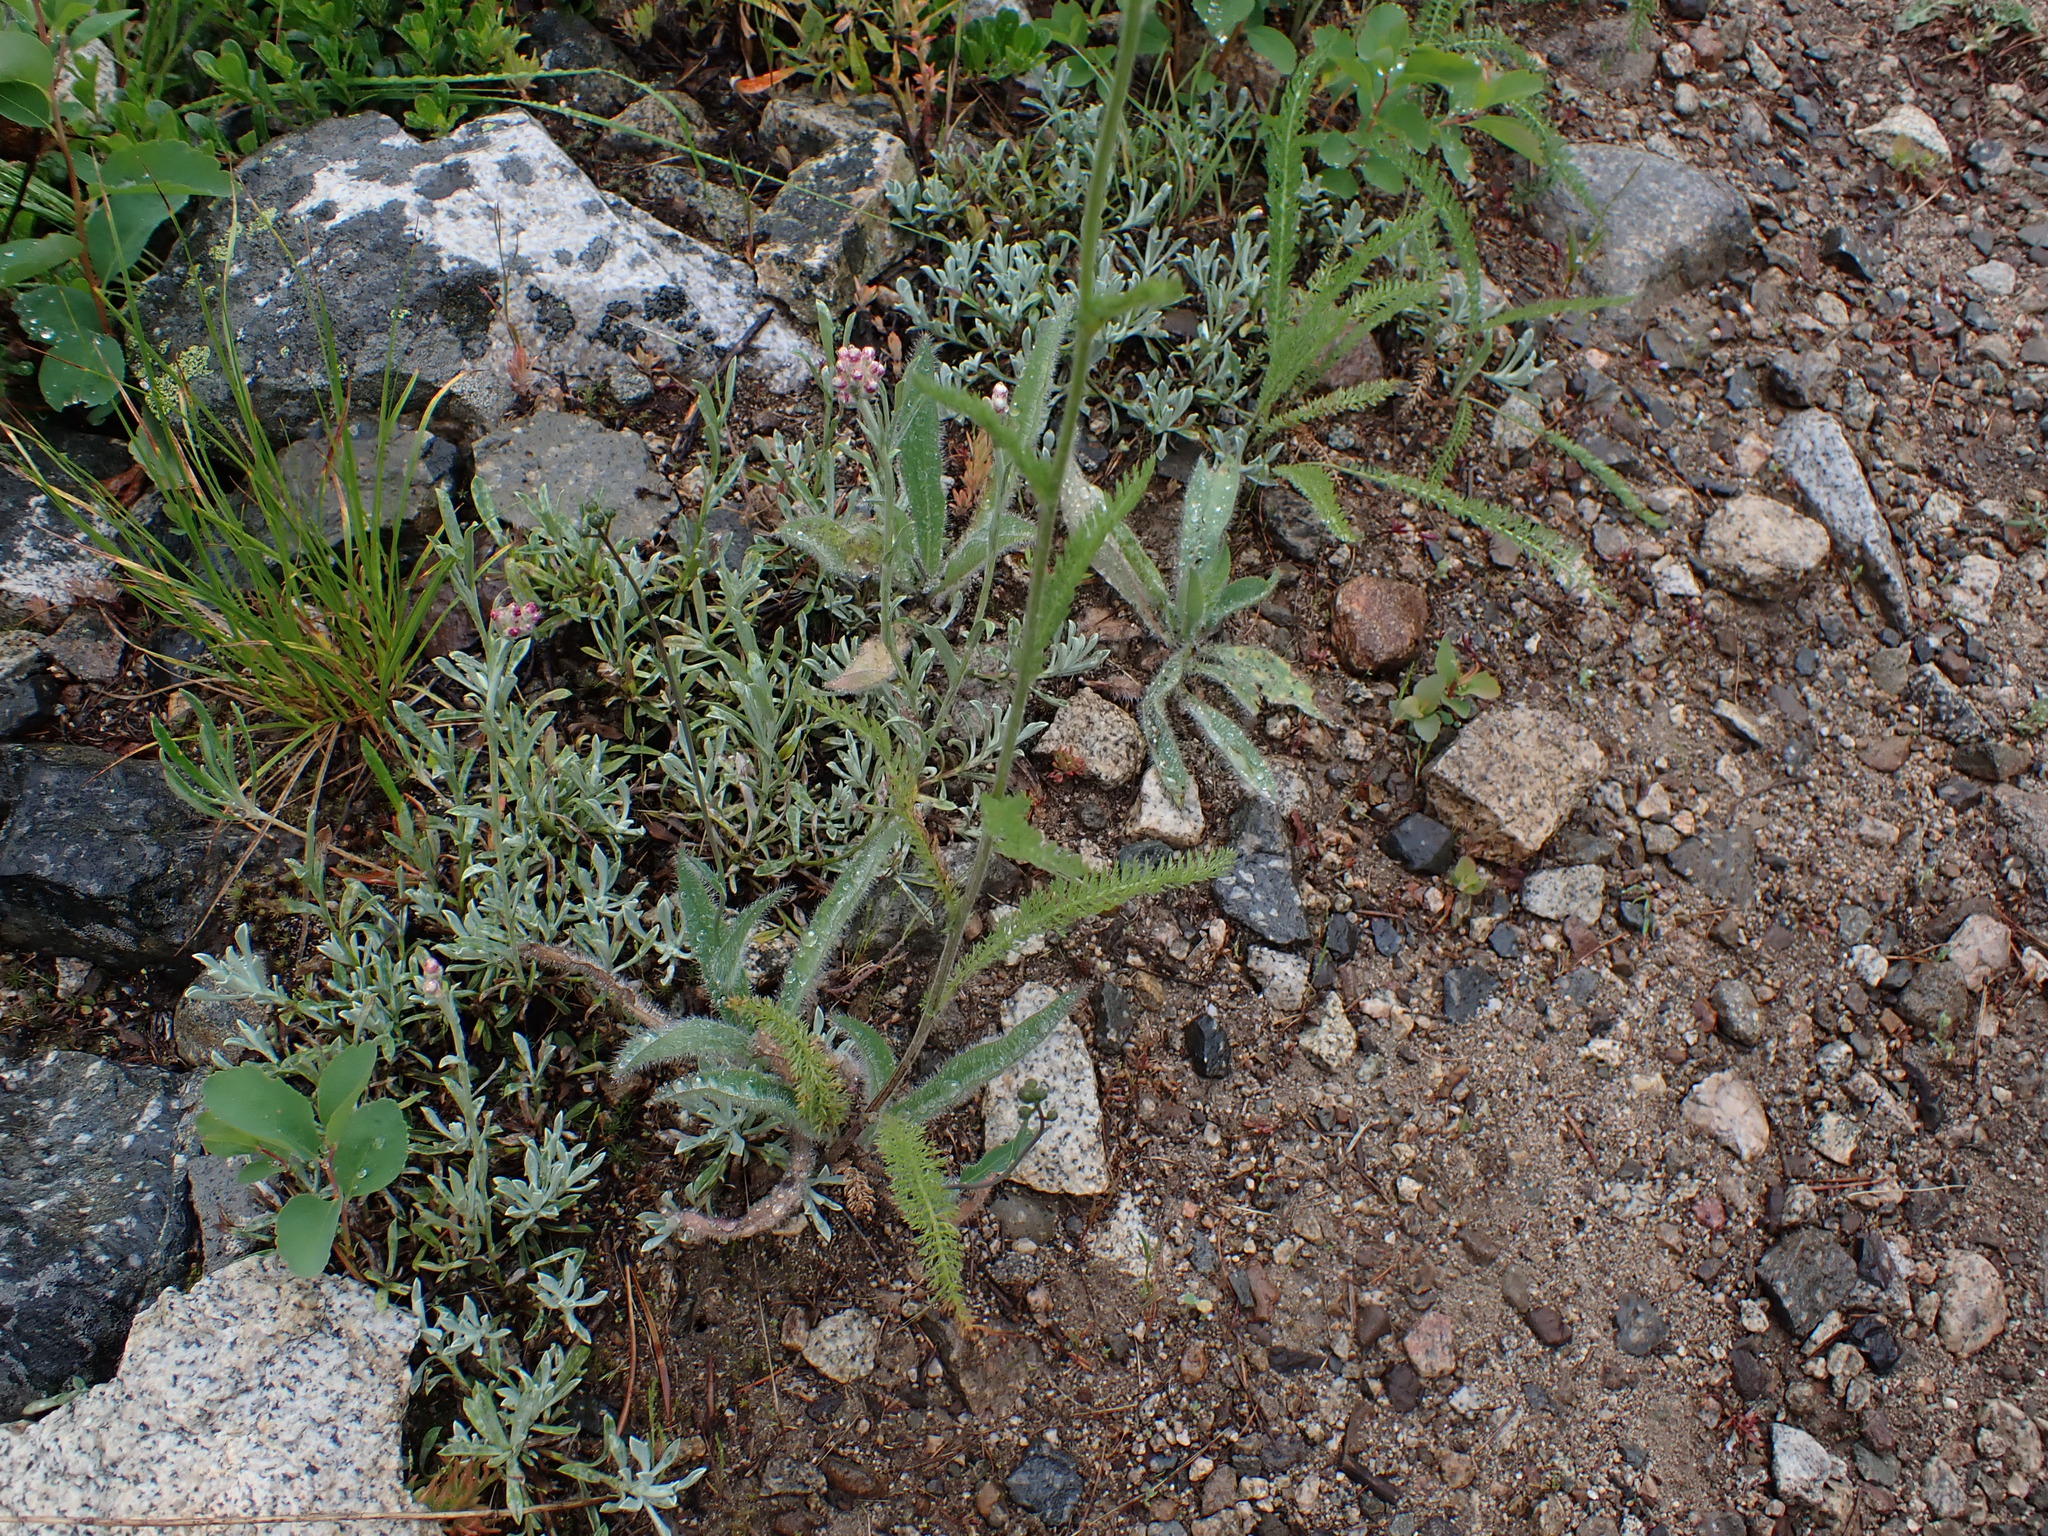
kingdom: Plantae
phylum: Tracheophyta
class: Magnoliopsida
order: Asterales
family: Asteraceae
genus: Achillea
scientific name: Achillea millefolium
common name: Yarrow
